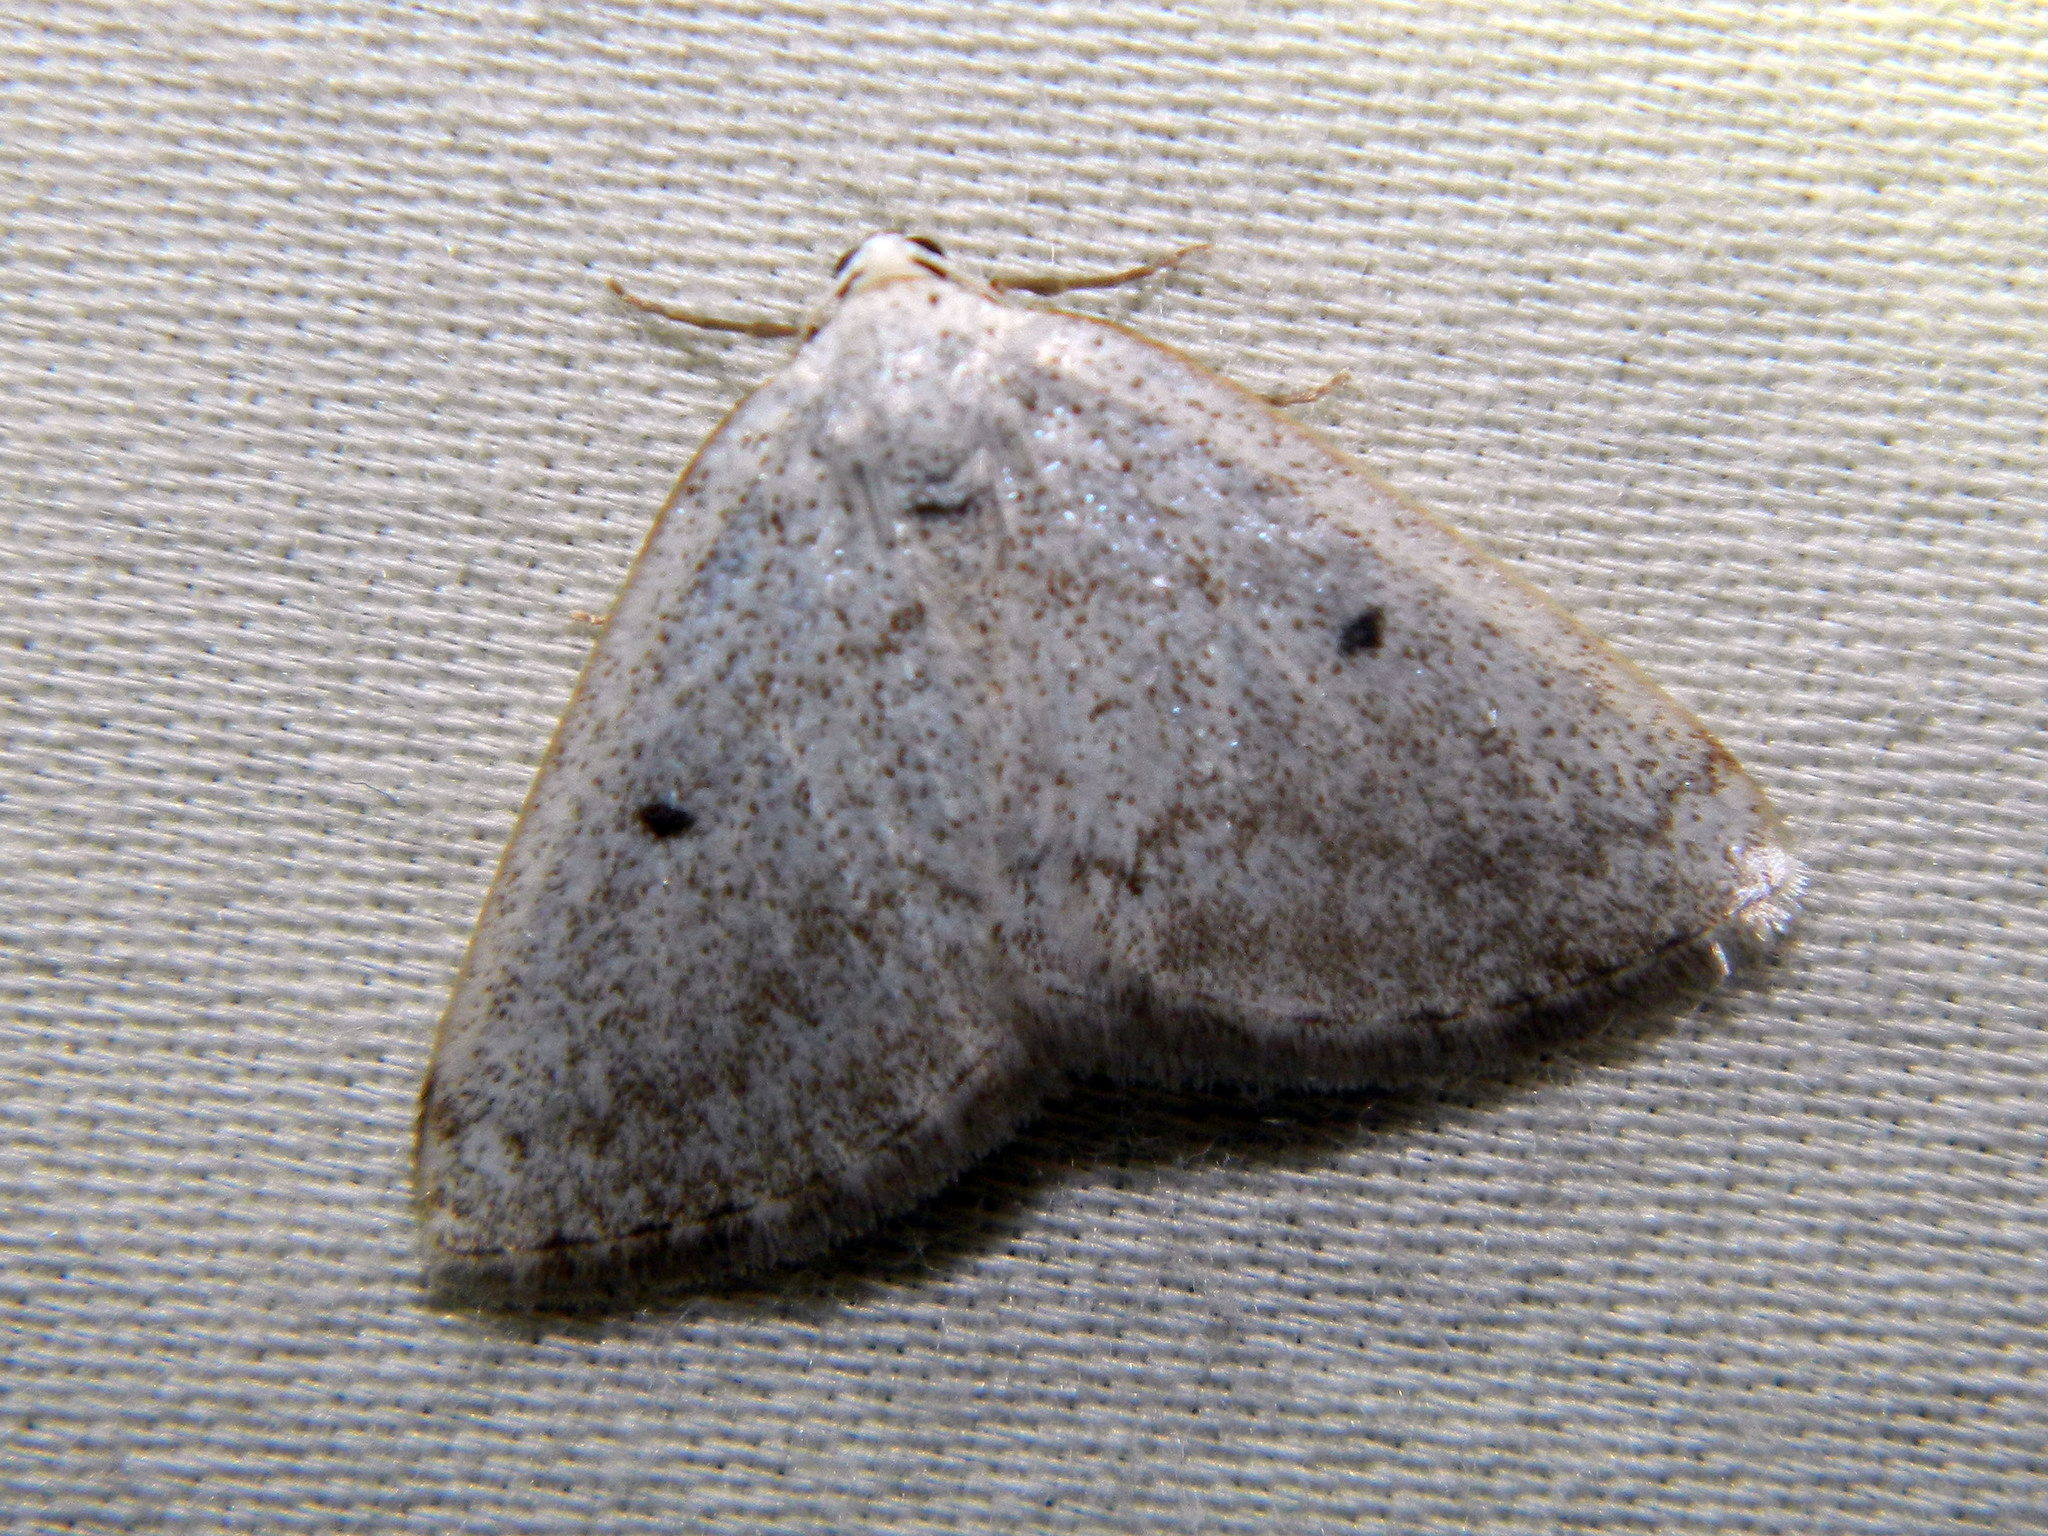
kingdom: Animalia
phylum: Arthropoda
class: Insecta
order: Lepidoptera
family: Geometridae
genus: Lomographa
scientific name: Lomographa glomeraria
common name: Gray spring moth
